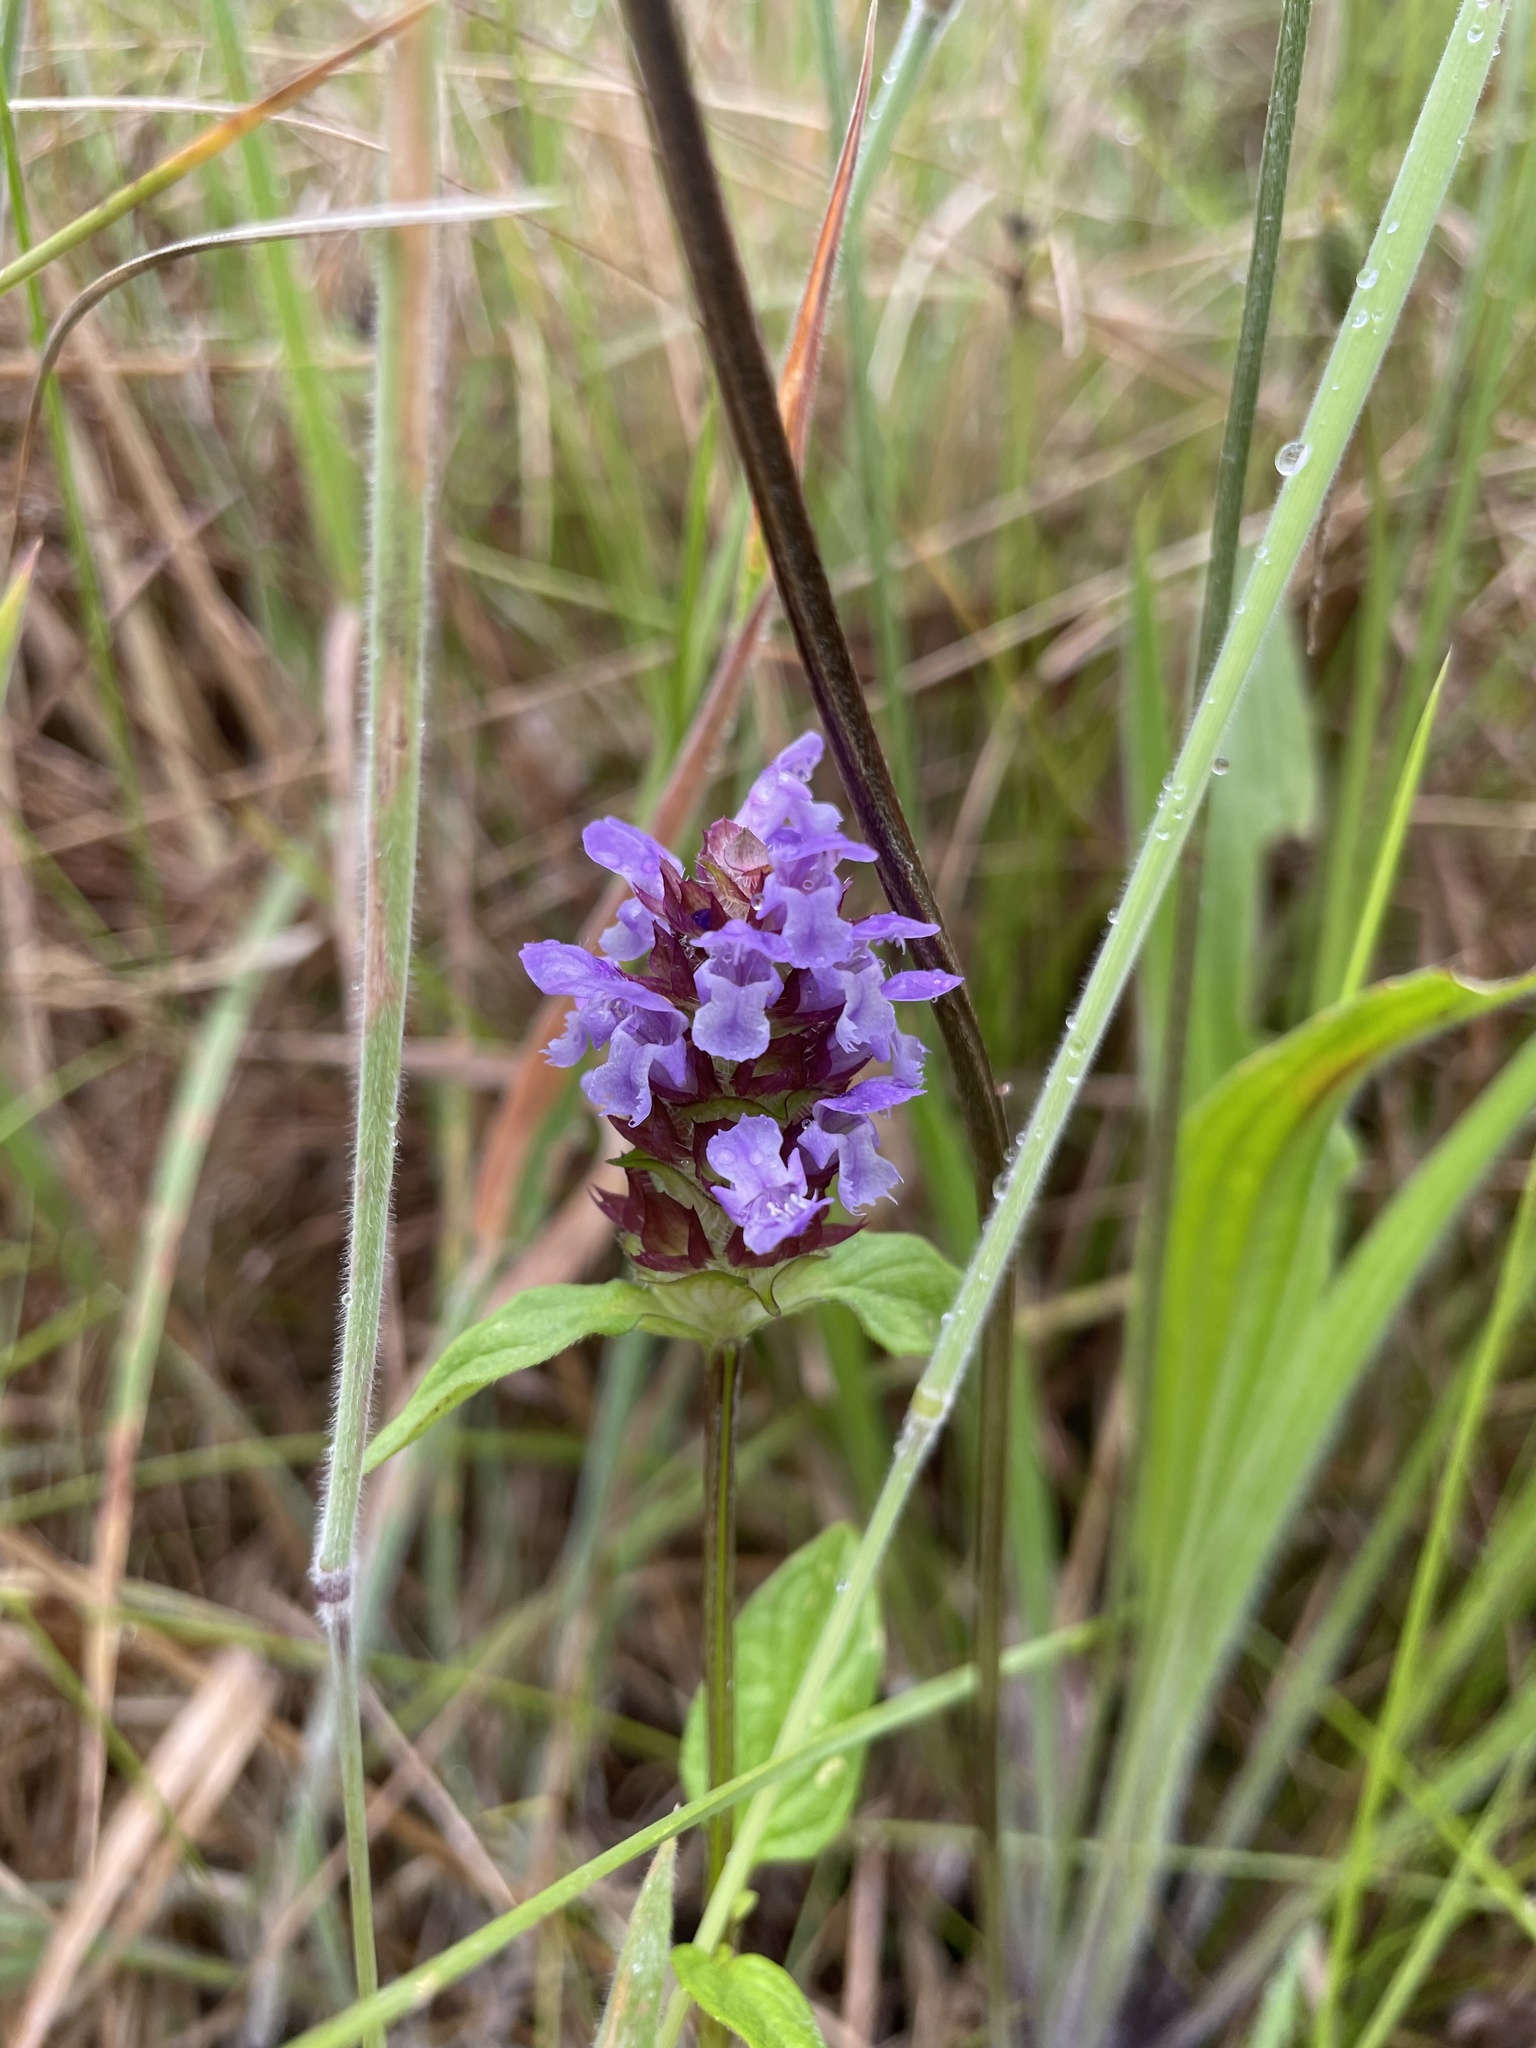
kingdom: Plantae
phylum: Tracheophyta
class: Magnoliopsida
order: Lamiales
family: Lamiaceae
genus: Prunella
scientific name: Prunella vulgaris
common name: Heal-all
